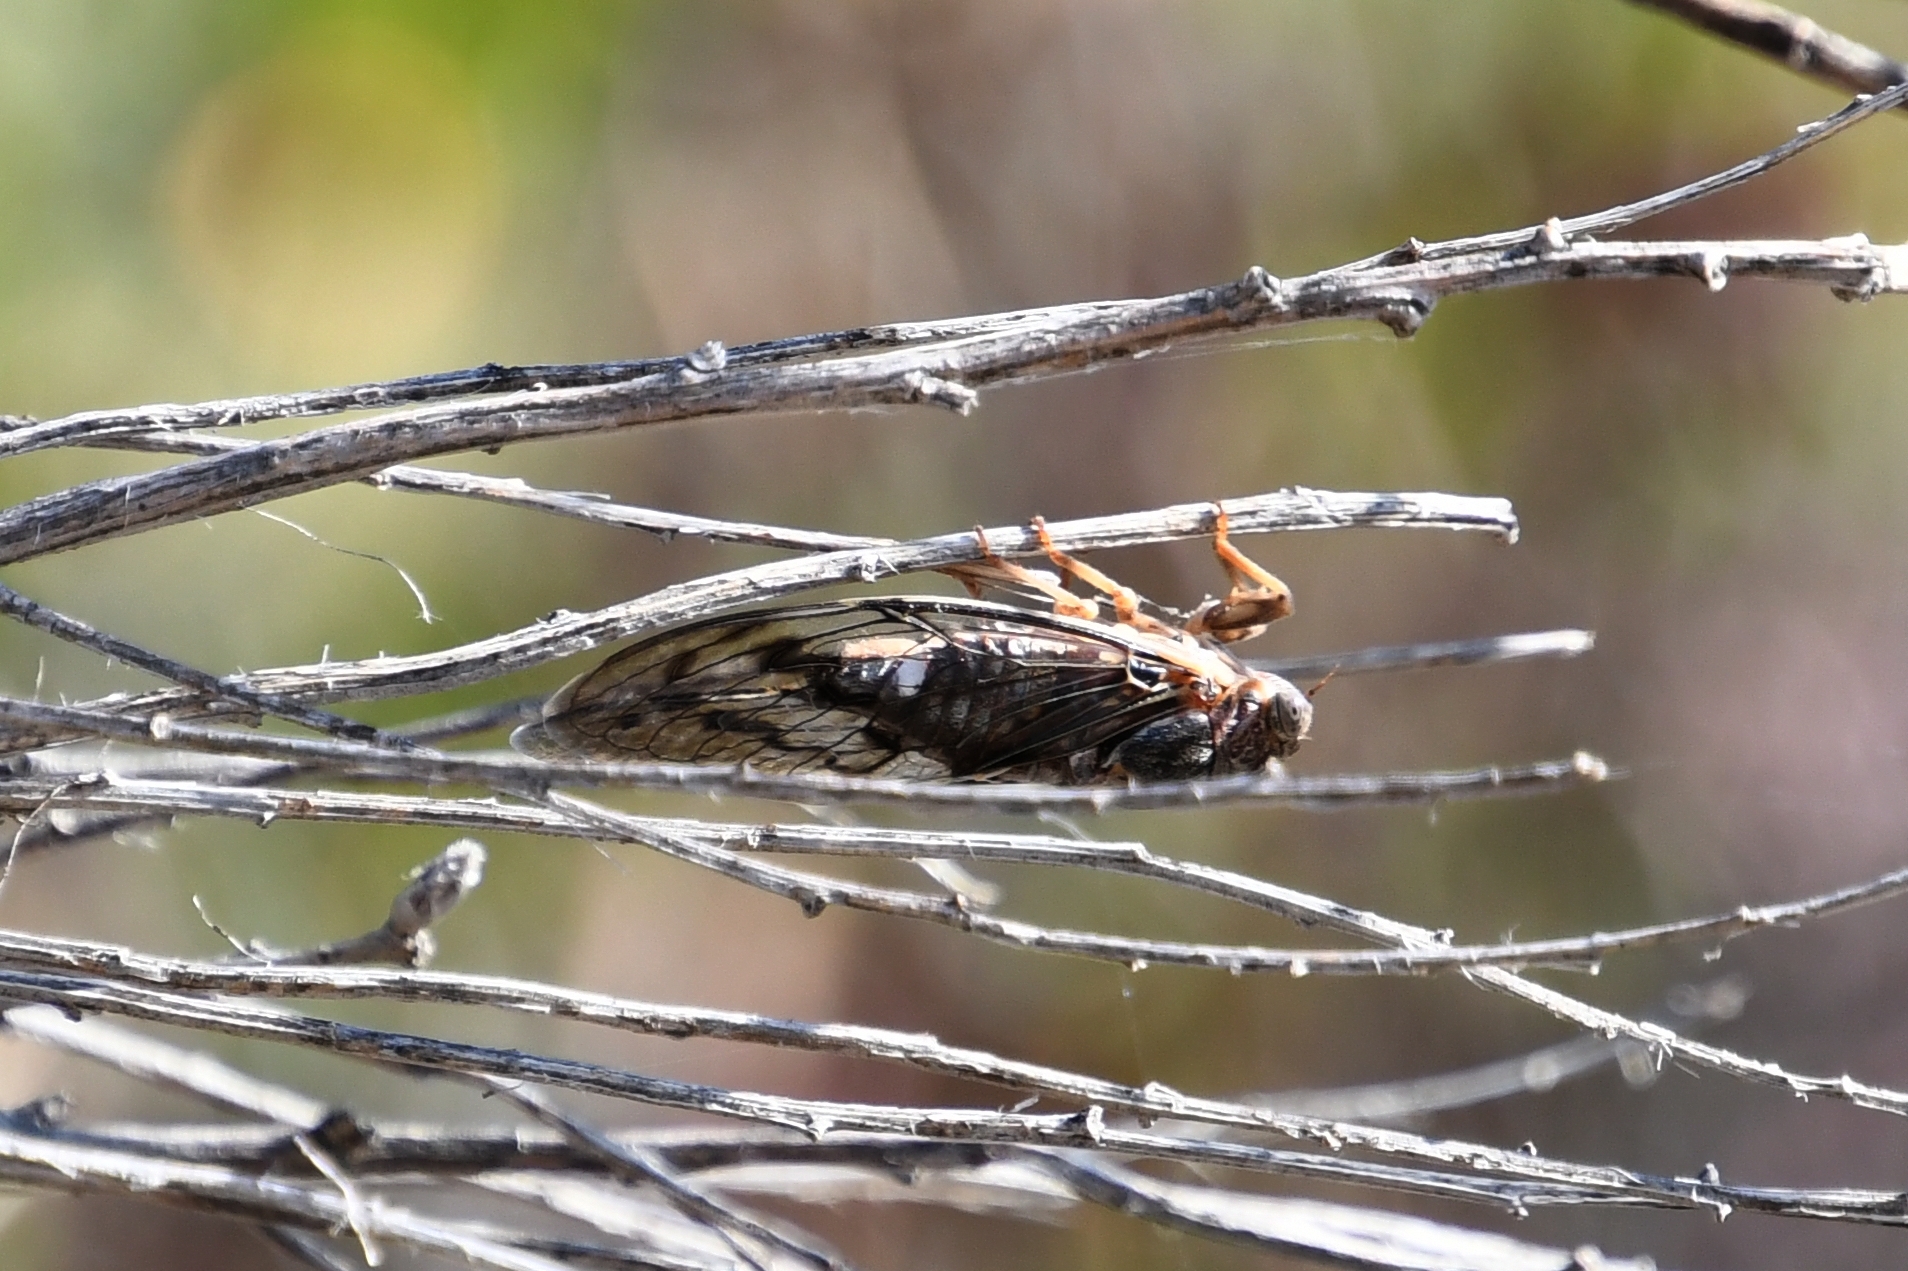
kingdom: Animalia
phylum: Arthropoda
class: Insecta
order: Hemiptera
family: Cicadidae
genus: Diceroprocta
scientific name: Diceroprocta swalei
